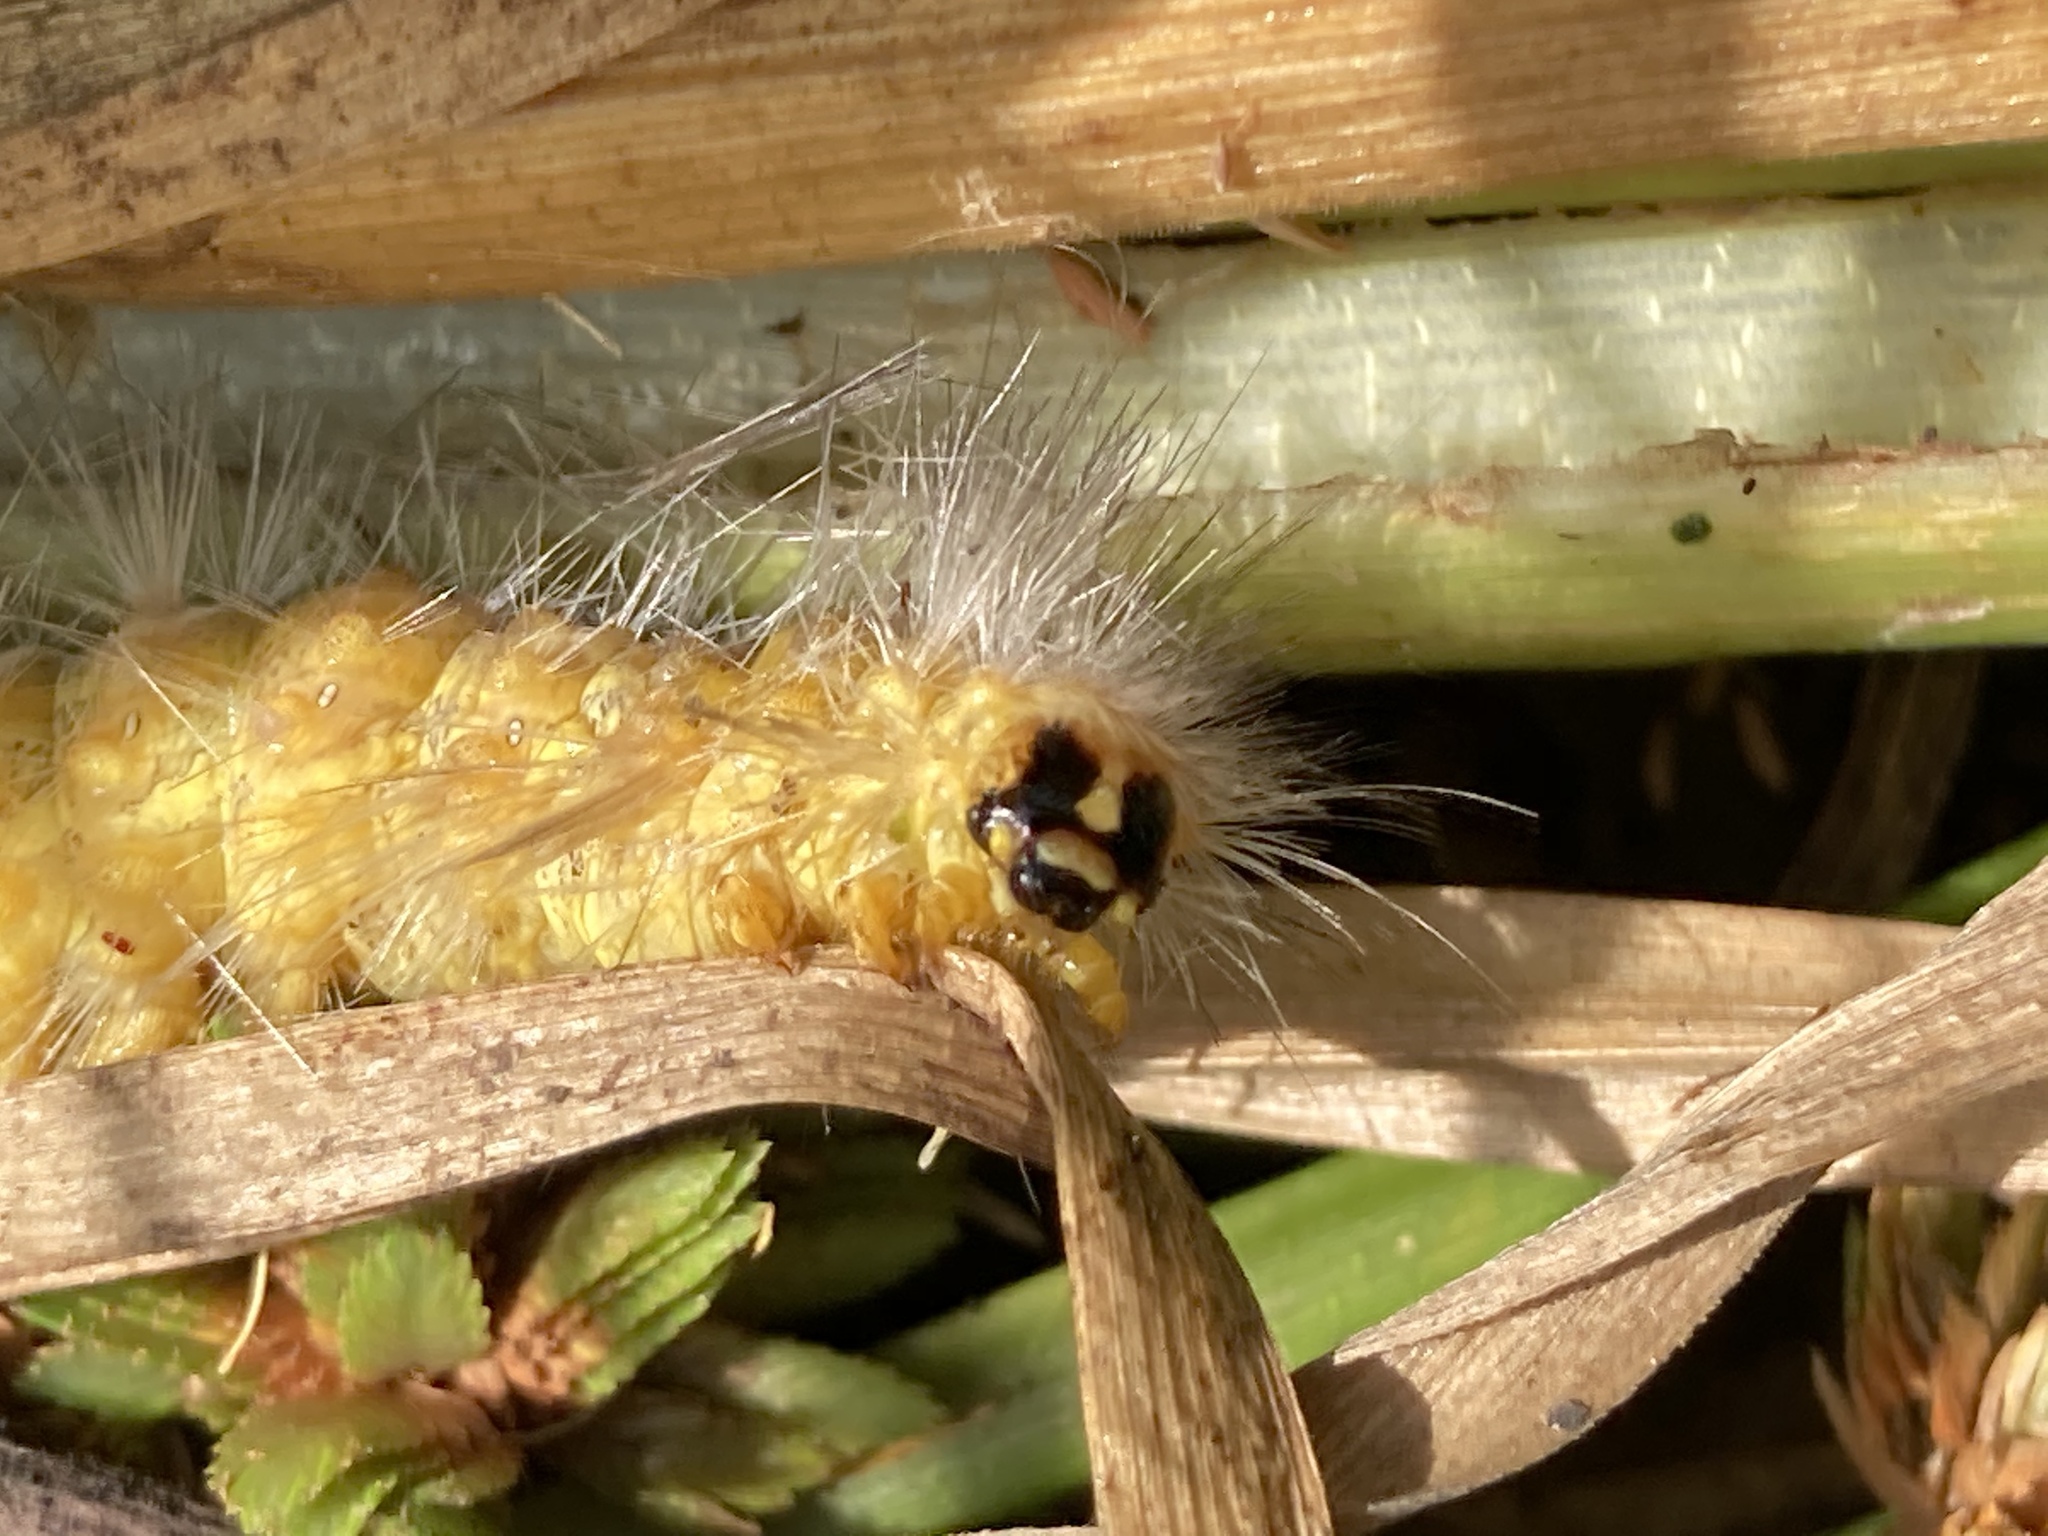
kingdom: Animalia
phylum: Arthropoda
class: Insecta
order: Lepidoptera
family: Erebidae
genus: Estigmene
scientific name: Estigmene acrea
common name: Salt marsh moth
